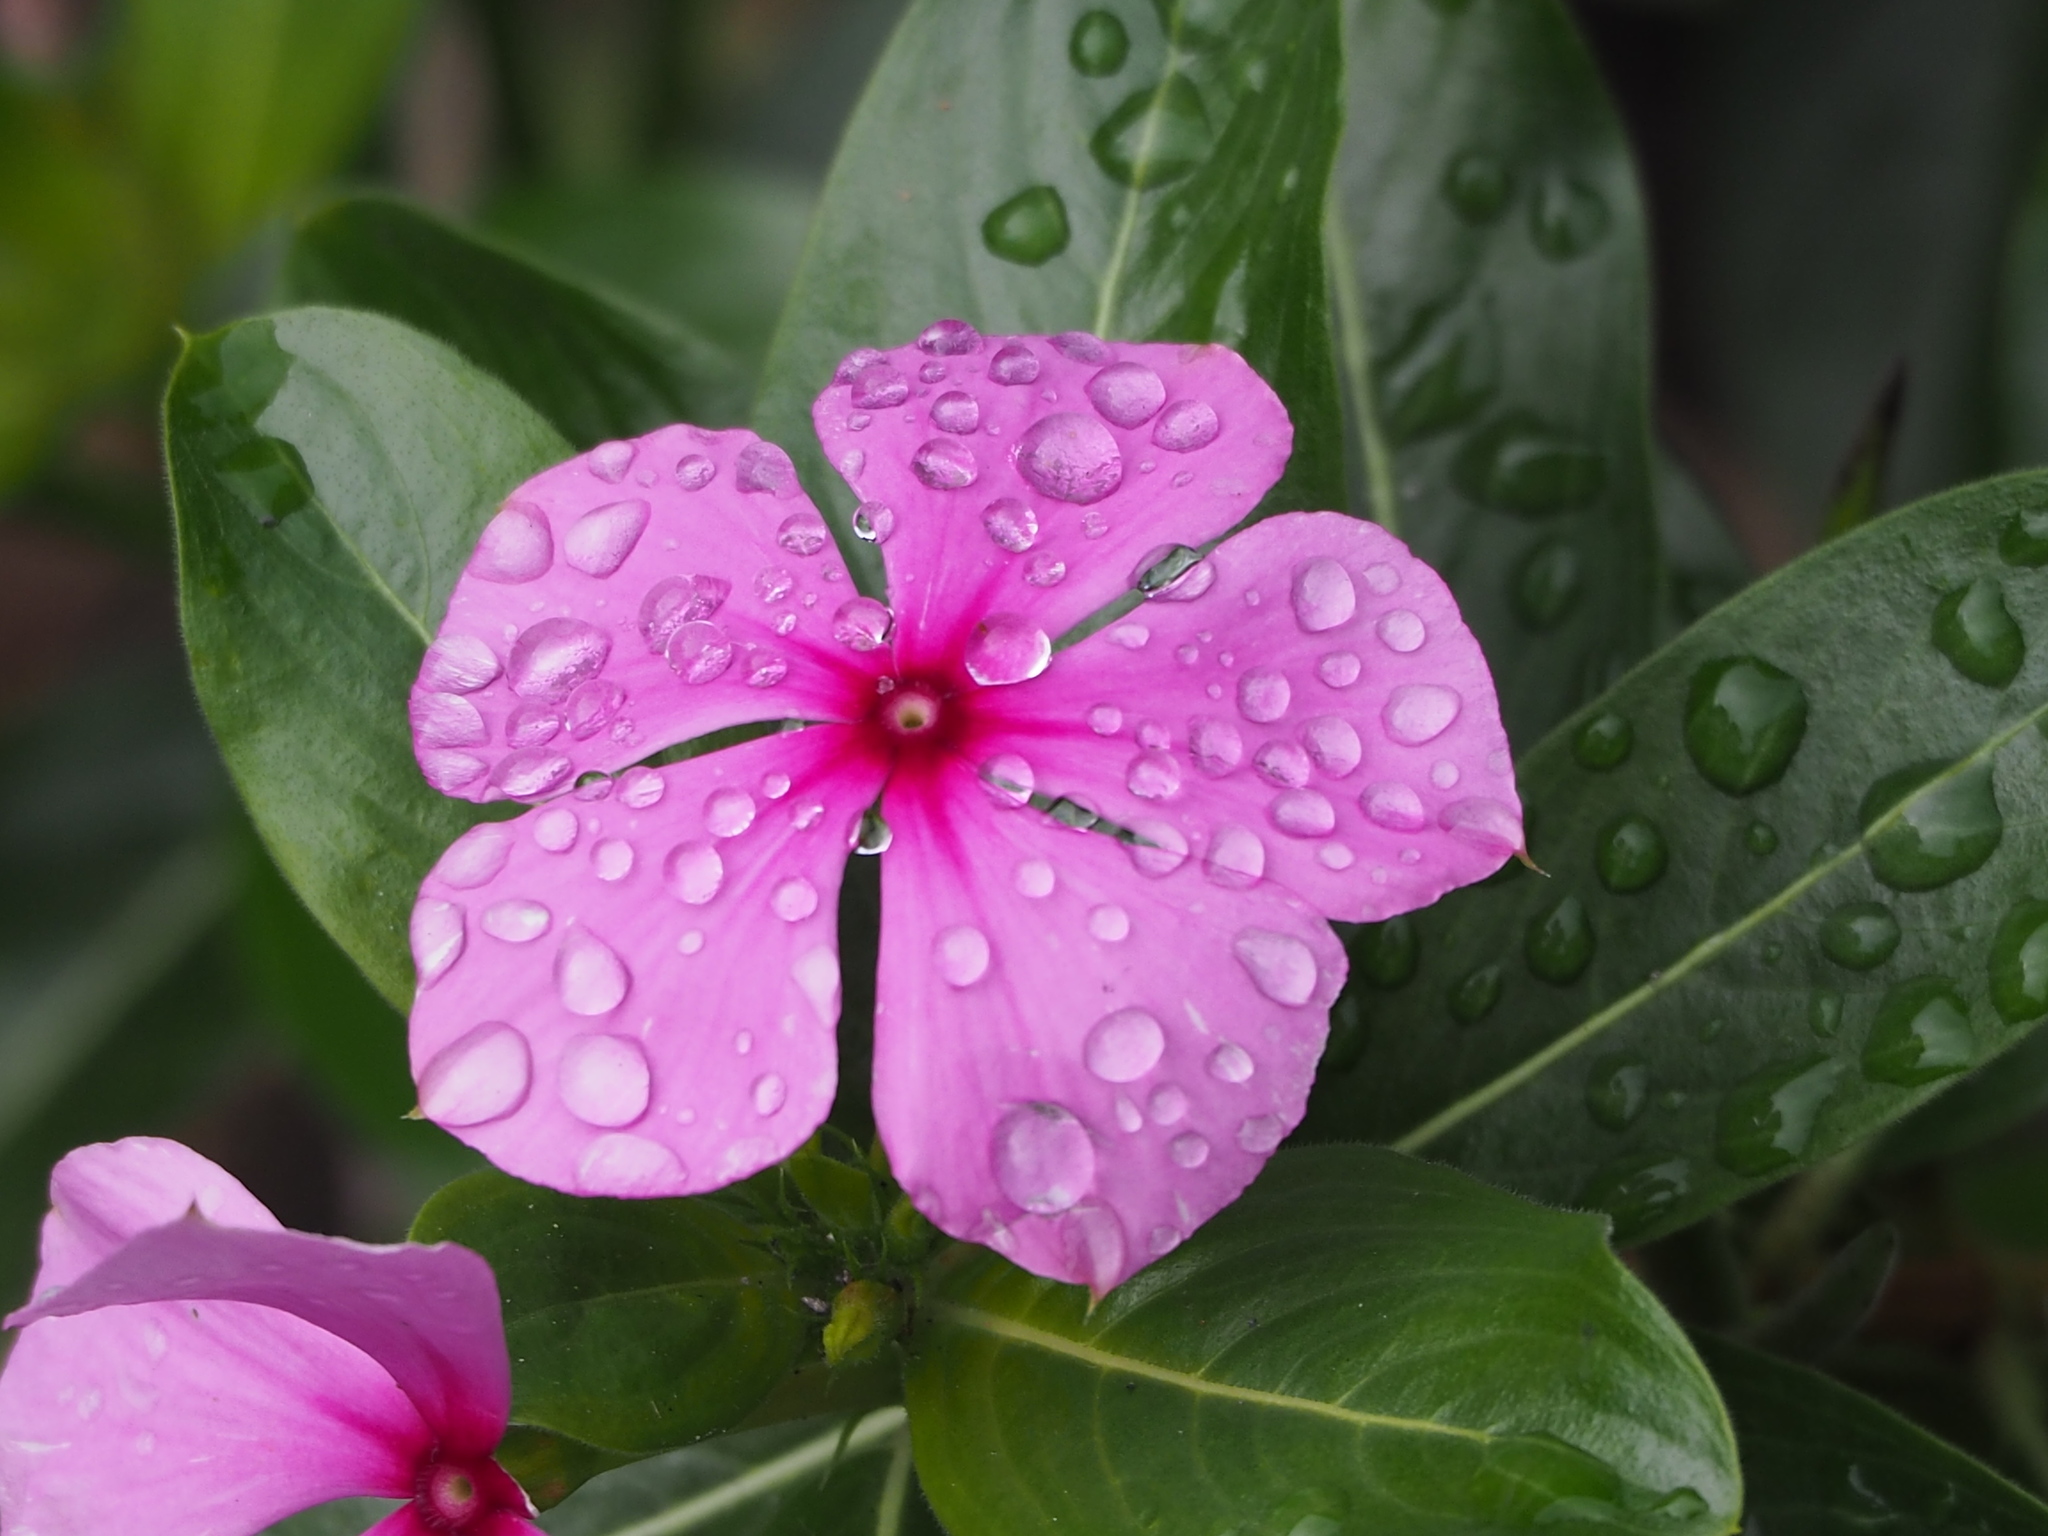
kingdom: Plantae
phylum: Tracheophyta
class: Magnoliopsida
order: Gentianales
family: Apocynaceae
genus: Catharanthus
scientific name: Catharanthus roseus
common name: Madagascar periwinkle
